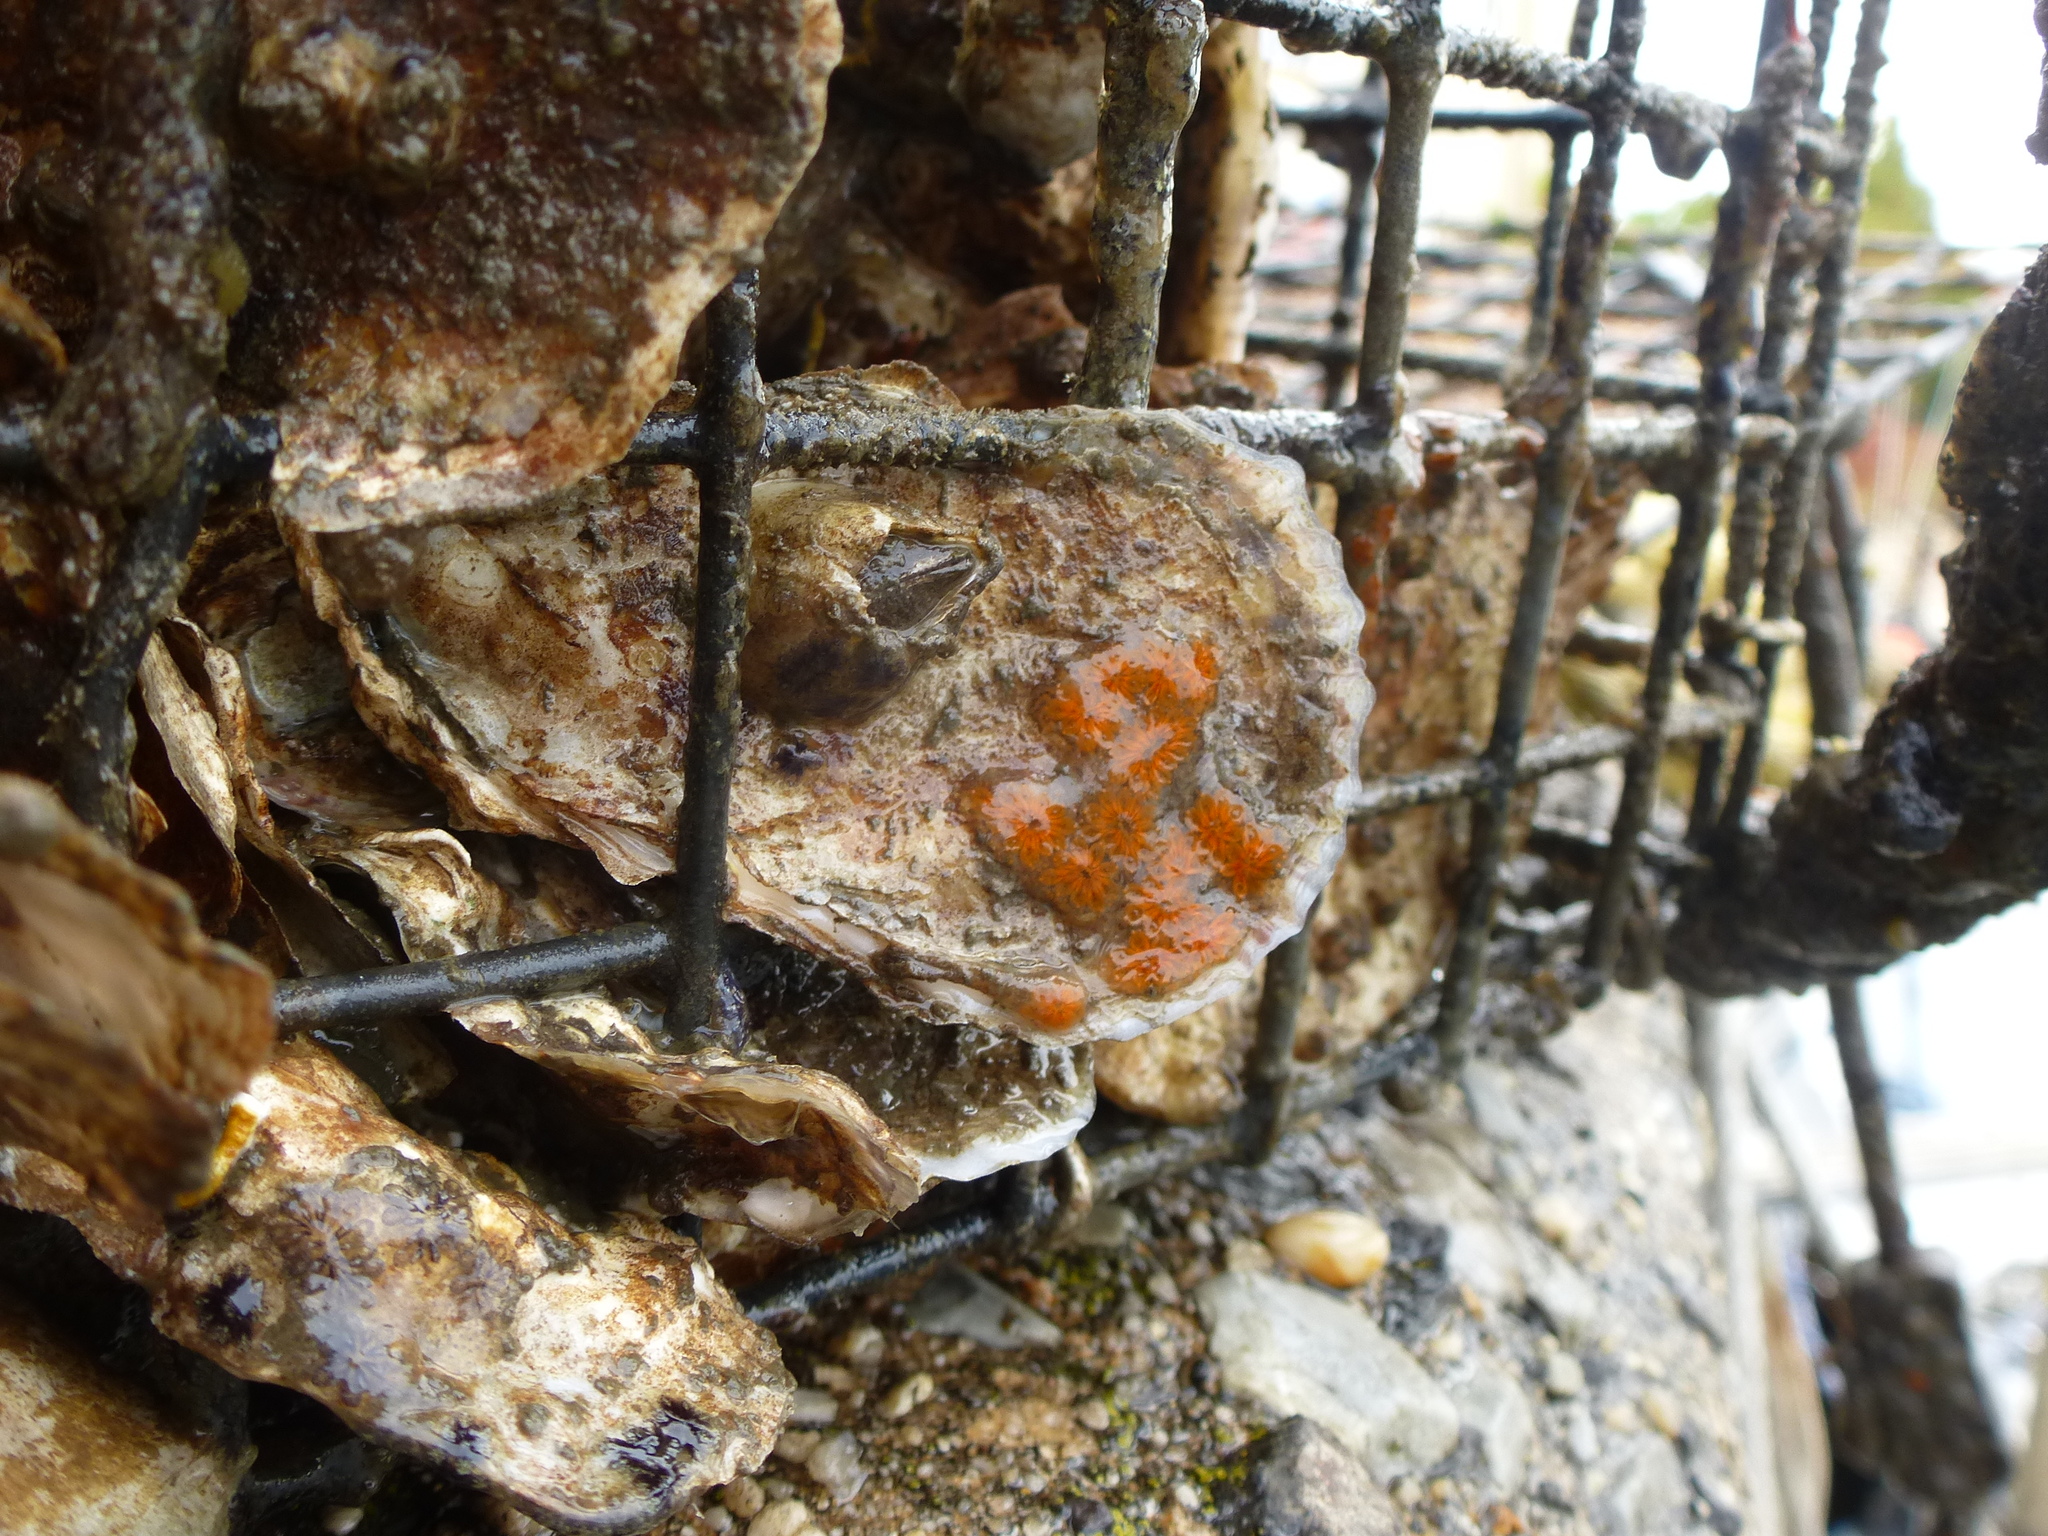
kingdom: Animalia
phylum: Chordata
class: Ascidiacea
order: Stolidobranchia
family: Styelidae
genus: Botryllus
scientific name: Botryllus schlosseri
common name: Golden star tunicate
